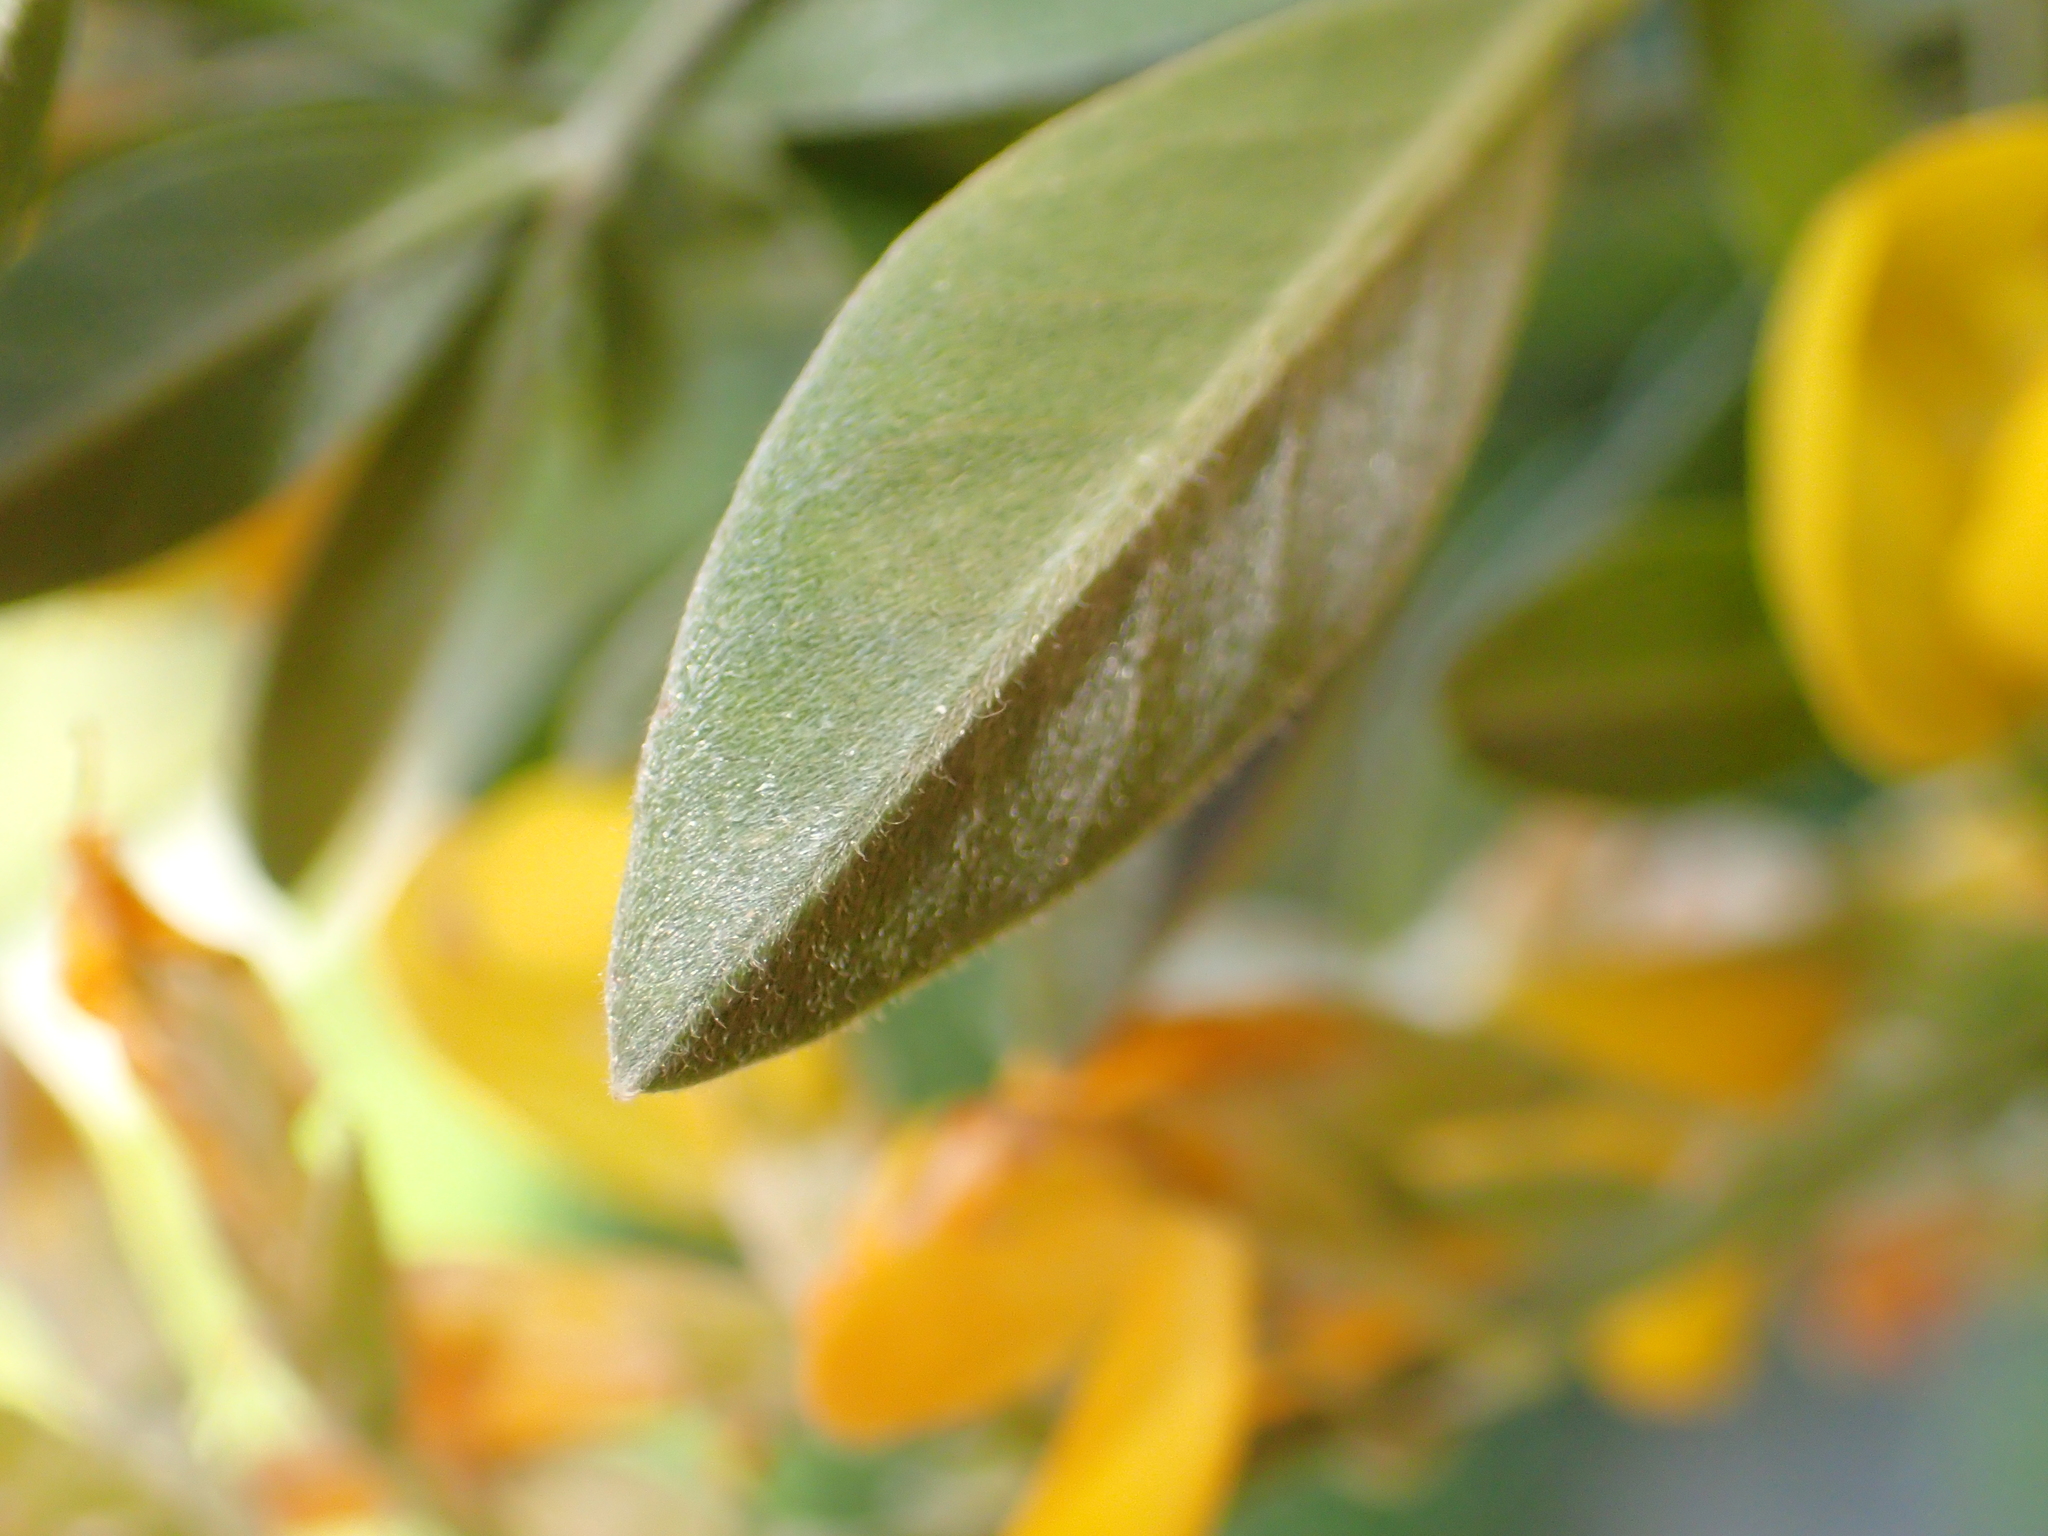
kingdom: Plantae
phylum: Tracheophyta
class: Magnoliopsida
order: Fabales
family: Fabaceae
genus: Lupinus
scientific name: Lupinus arboreus
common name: Yellow bush lupine
